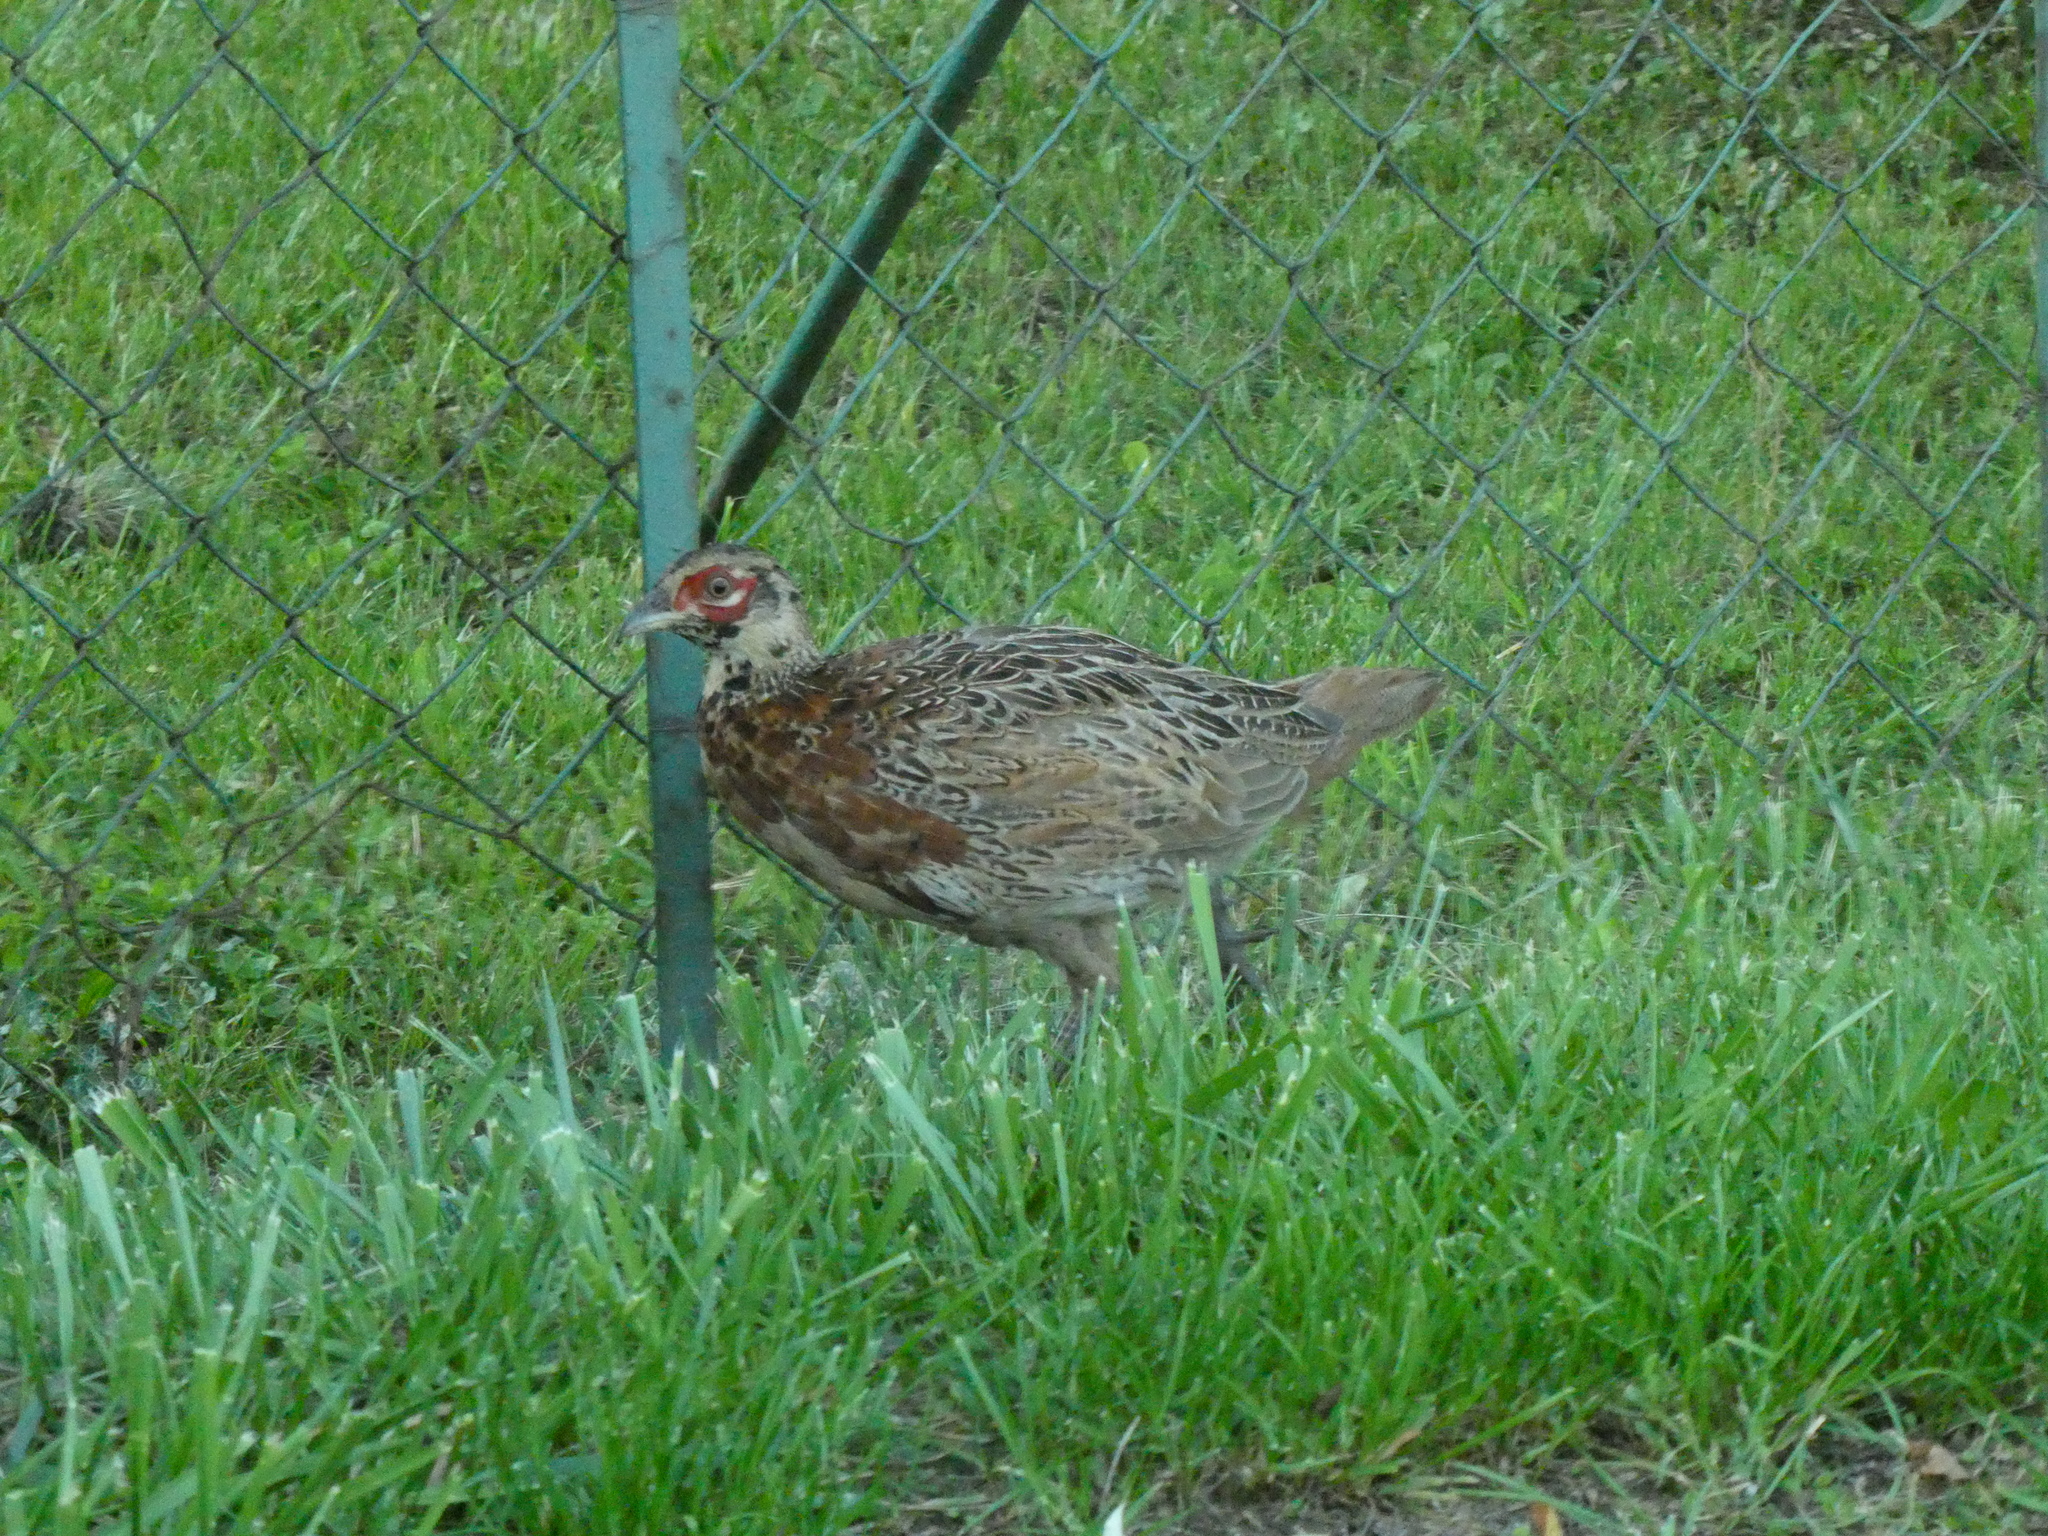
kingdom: Animalia
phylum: Chordata
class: Aves
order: Galliformes
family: Phasianidae
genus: Phasianus
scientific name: Phasianus colchicus
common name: Common pheasant
